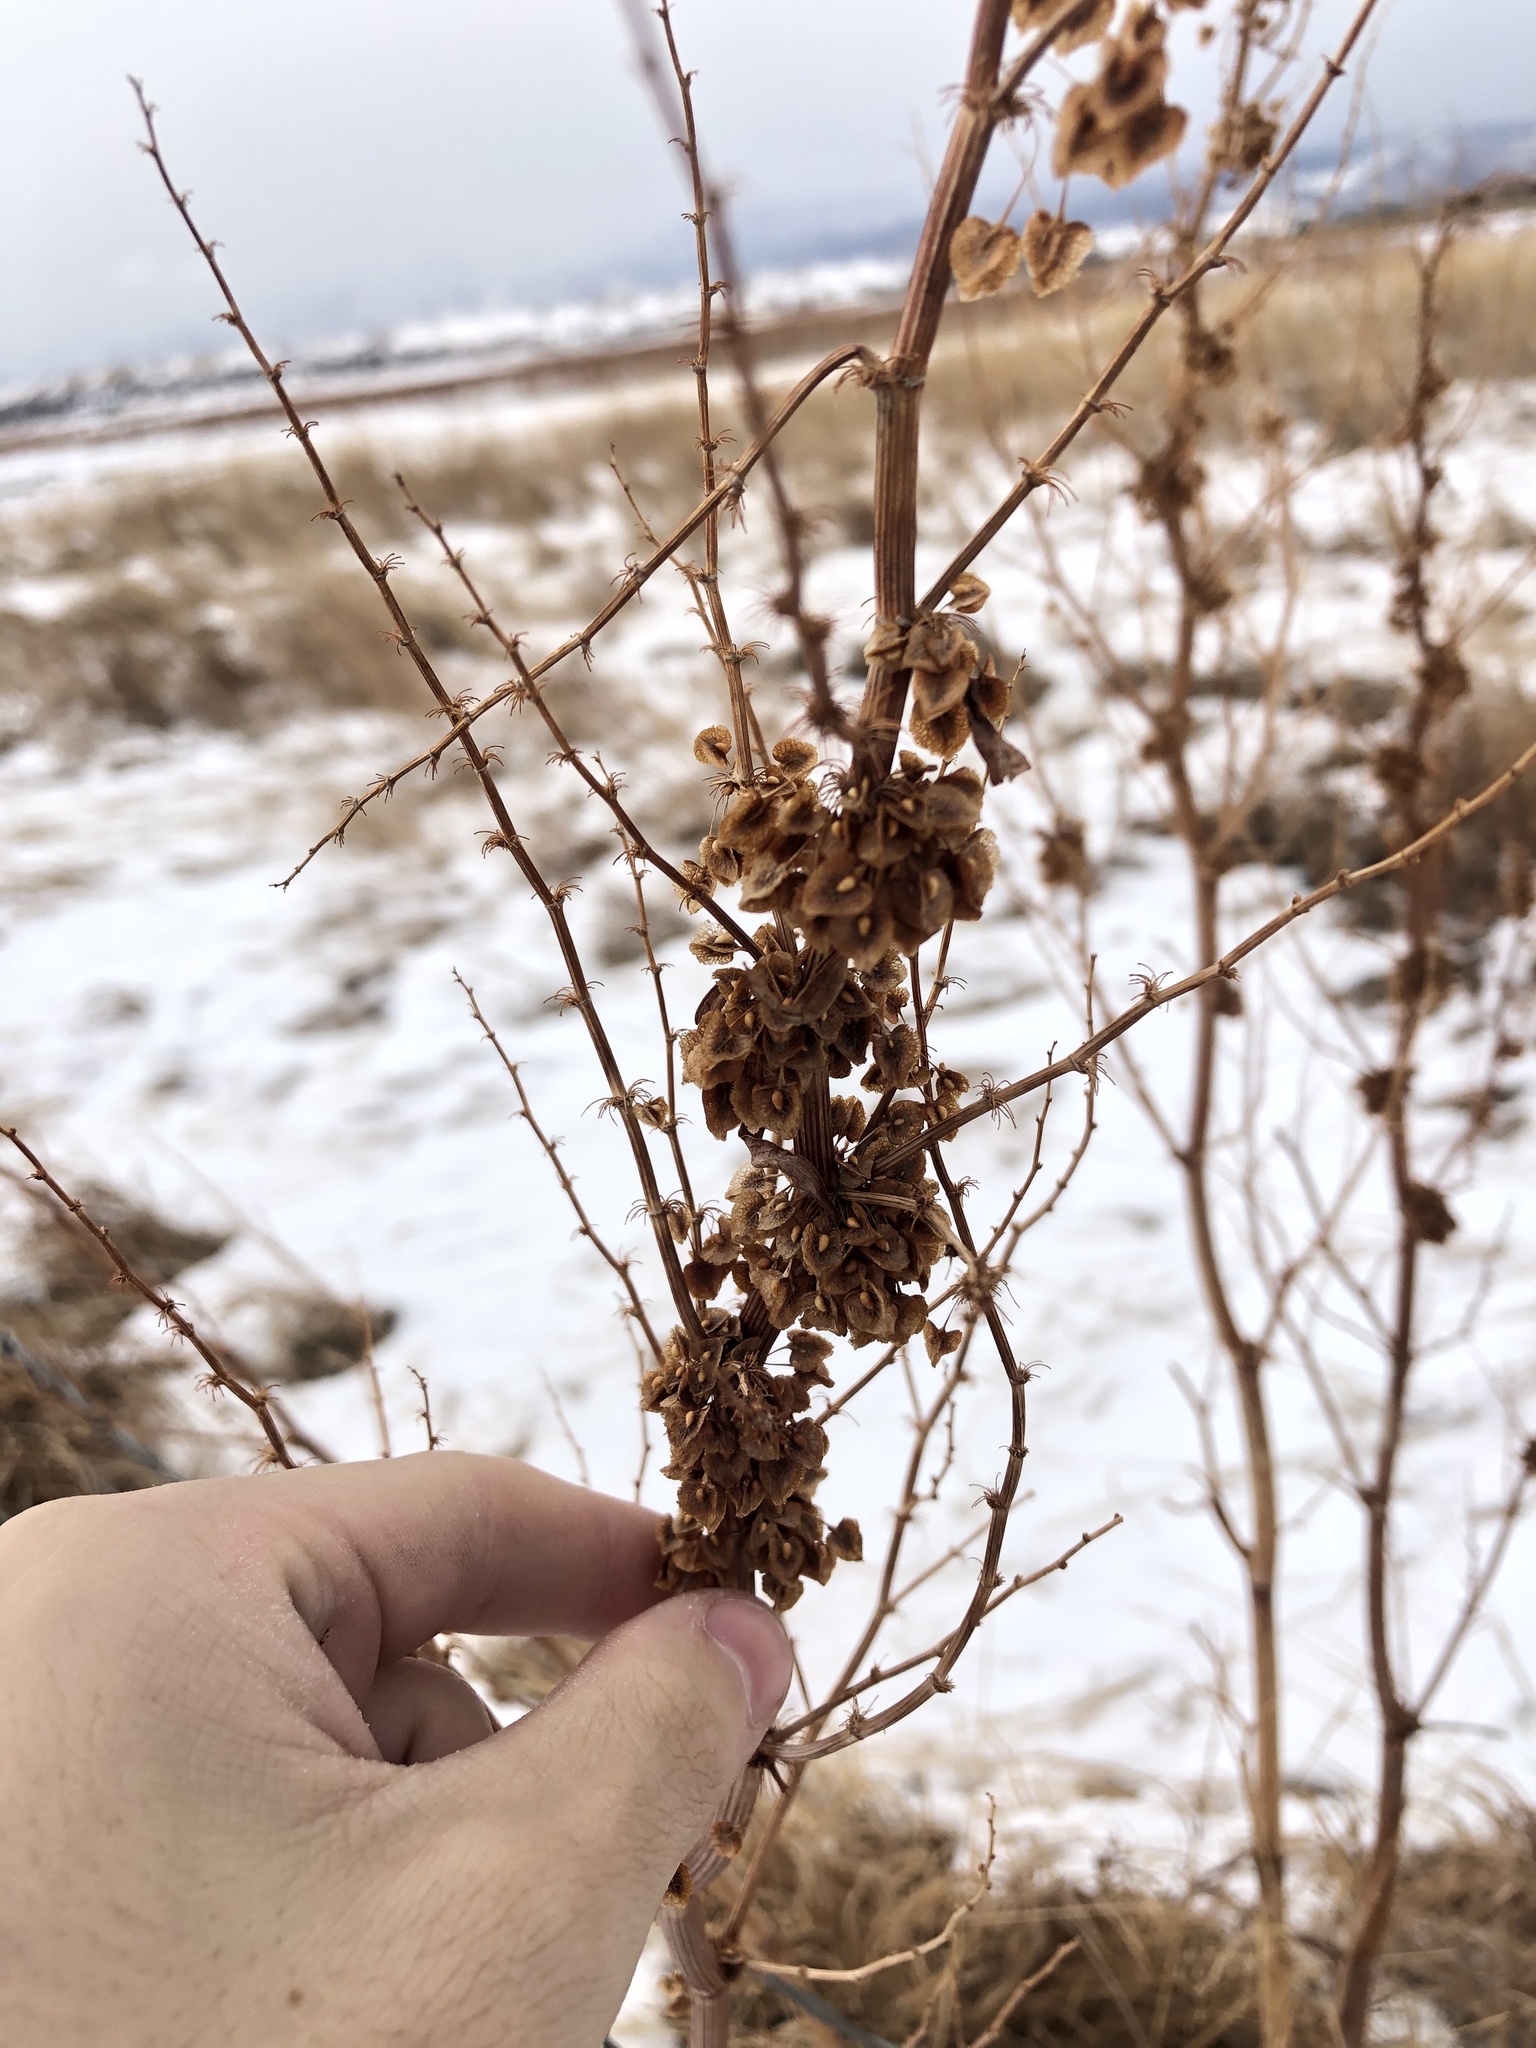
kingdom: Plantae
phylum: Tracheophyta
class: Magnoliopsida
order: Caryophyllales
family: Polygonaceae
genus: Rumex
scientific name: Rumex crispus
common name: Curled dock
